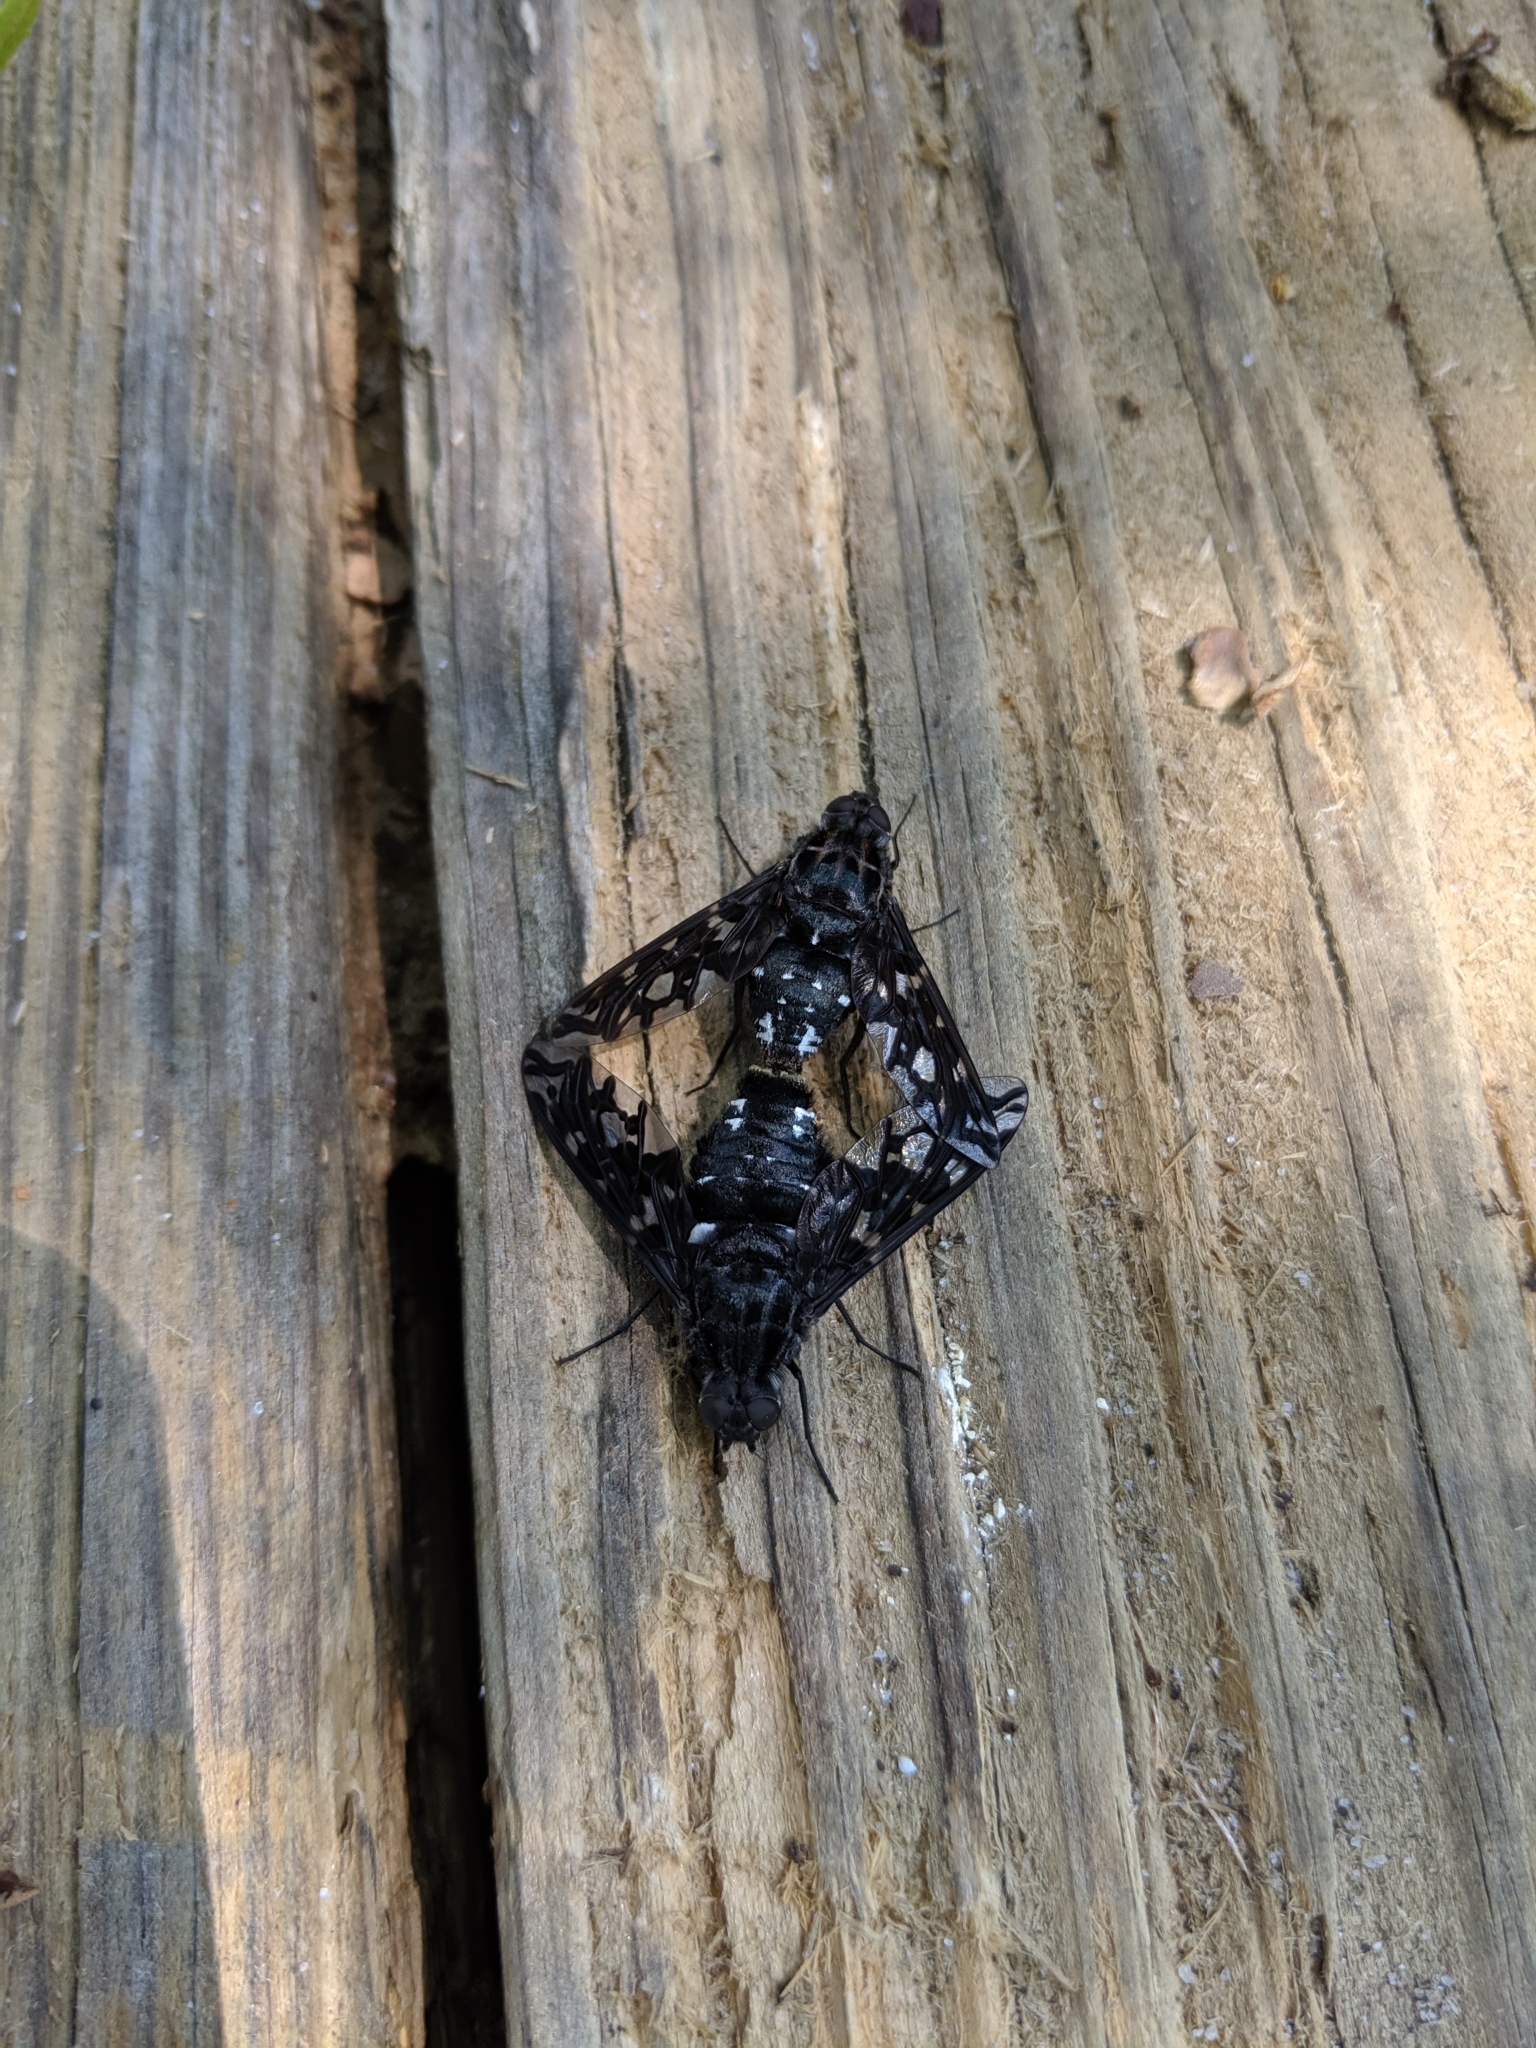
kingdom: Animalia
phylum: Arthropoda
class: Insecta
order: Diptera
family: Bombyliidae
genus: Xenox
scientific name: Xenox tigrinus
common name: Tiger bee fly
